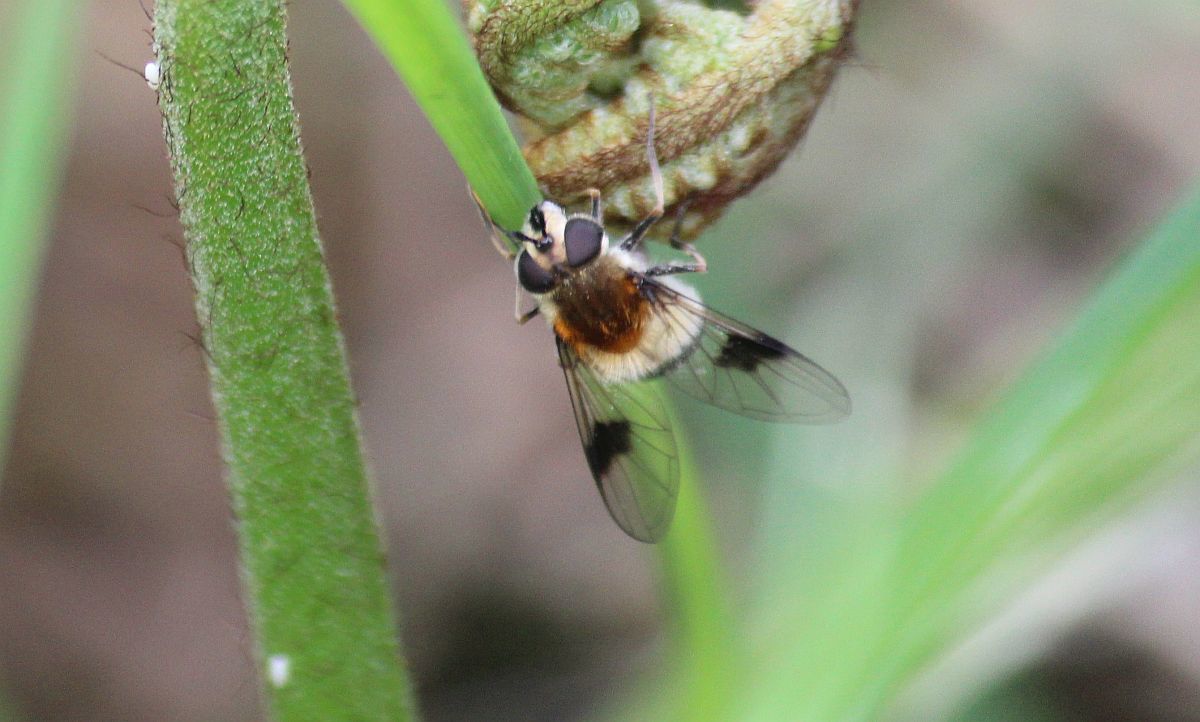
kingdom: Animalia
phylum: Arthropoda
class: Insecta
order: Diptera
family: Syrphidae
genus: Leucozona
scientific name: Leucozona lucorum
